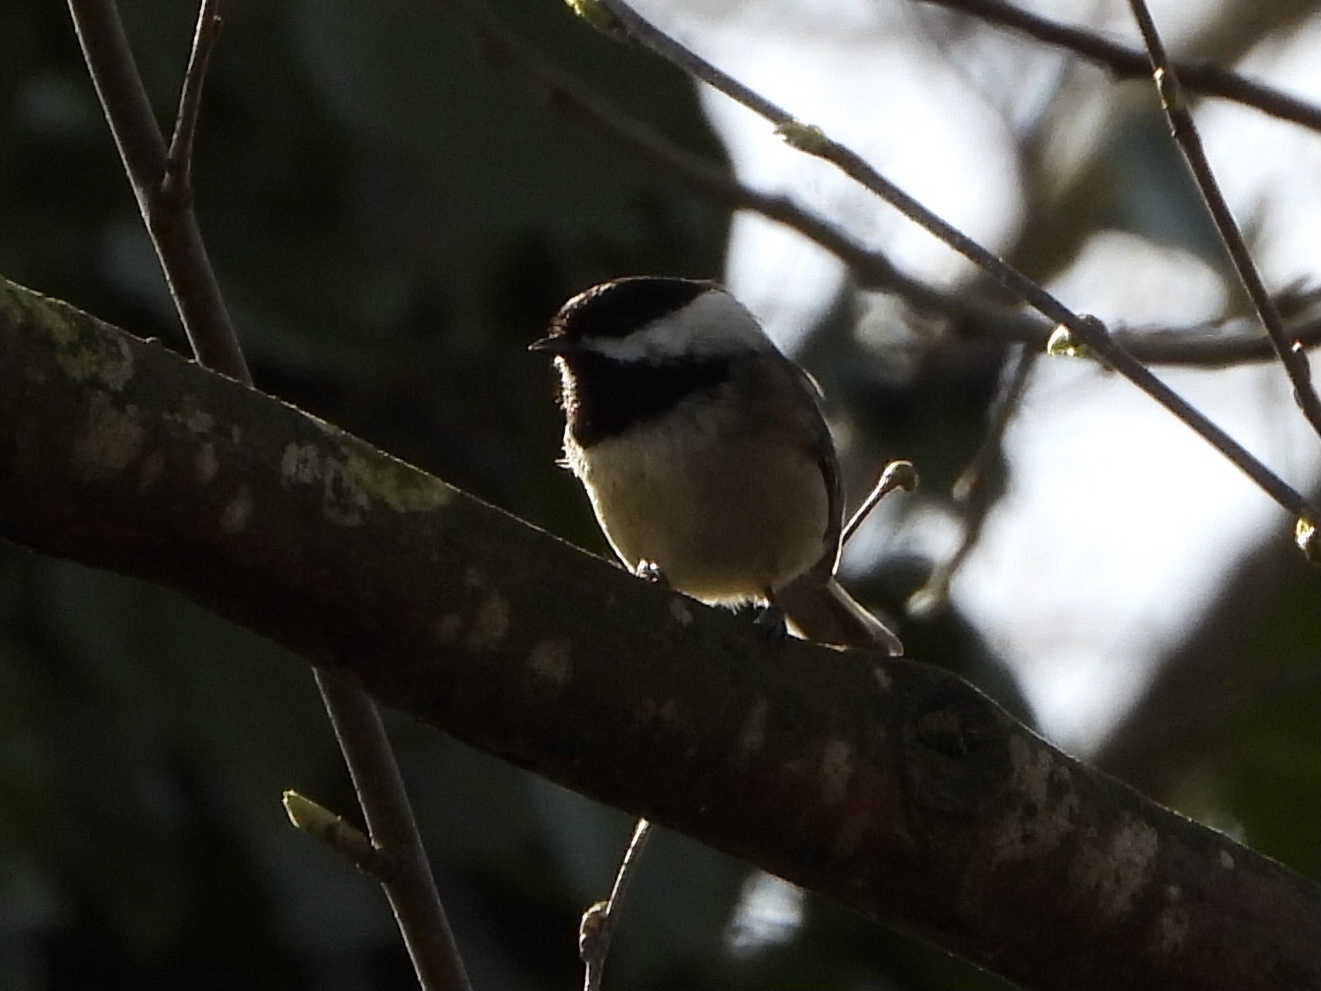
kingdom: Animalia
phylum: Chordata
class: Aves
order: Passeriformes
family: Paridae
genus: Poecile
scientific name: Poecile atricapillus
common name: Black-capped chickadee
